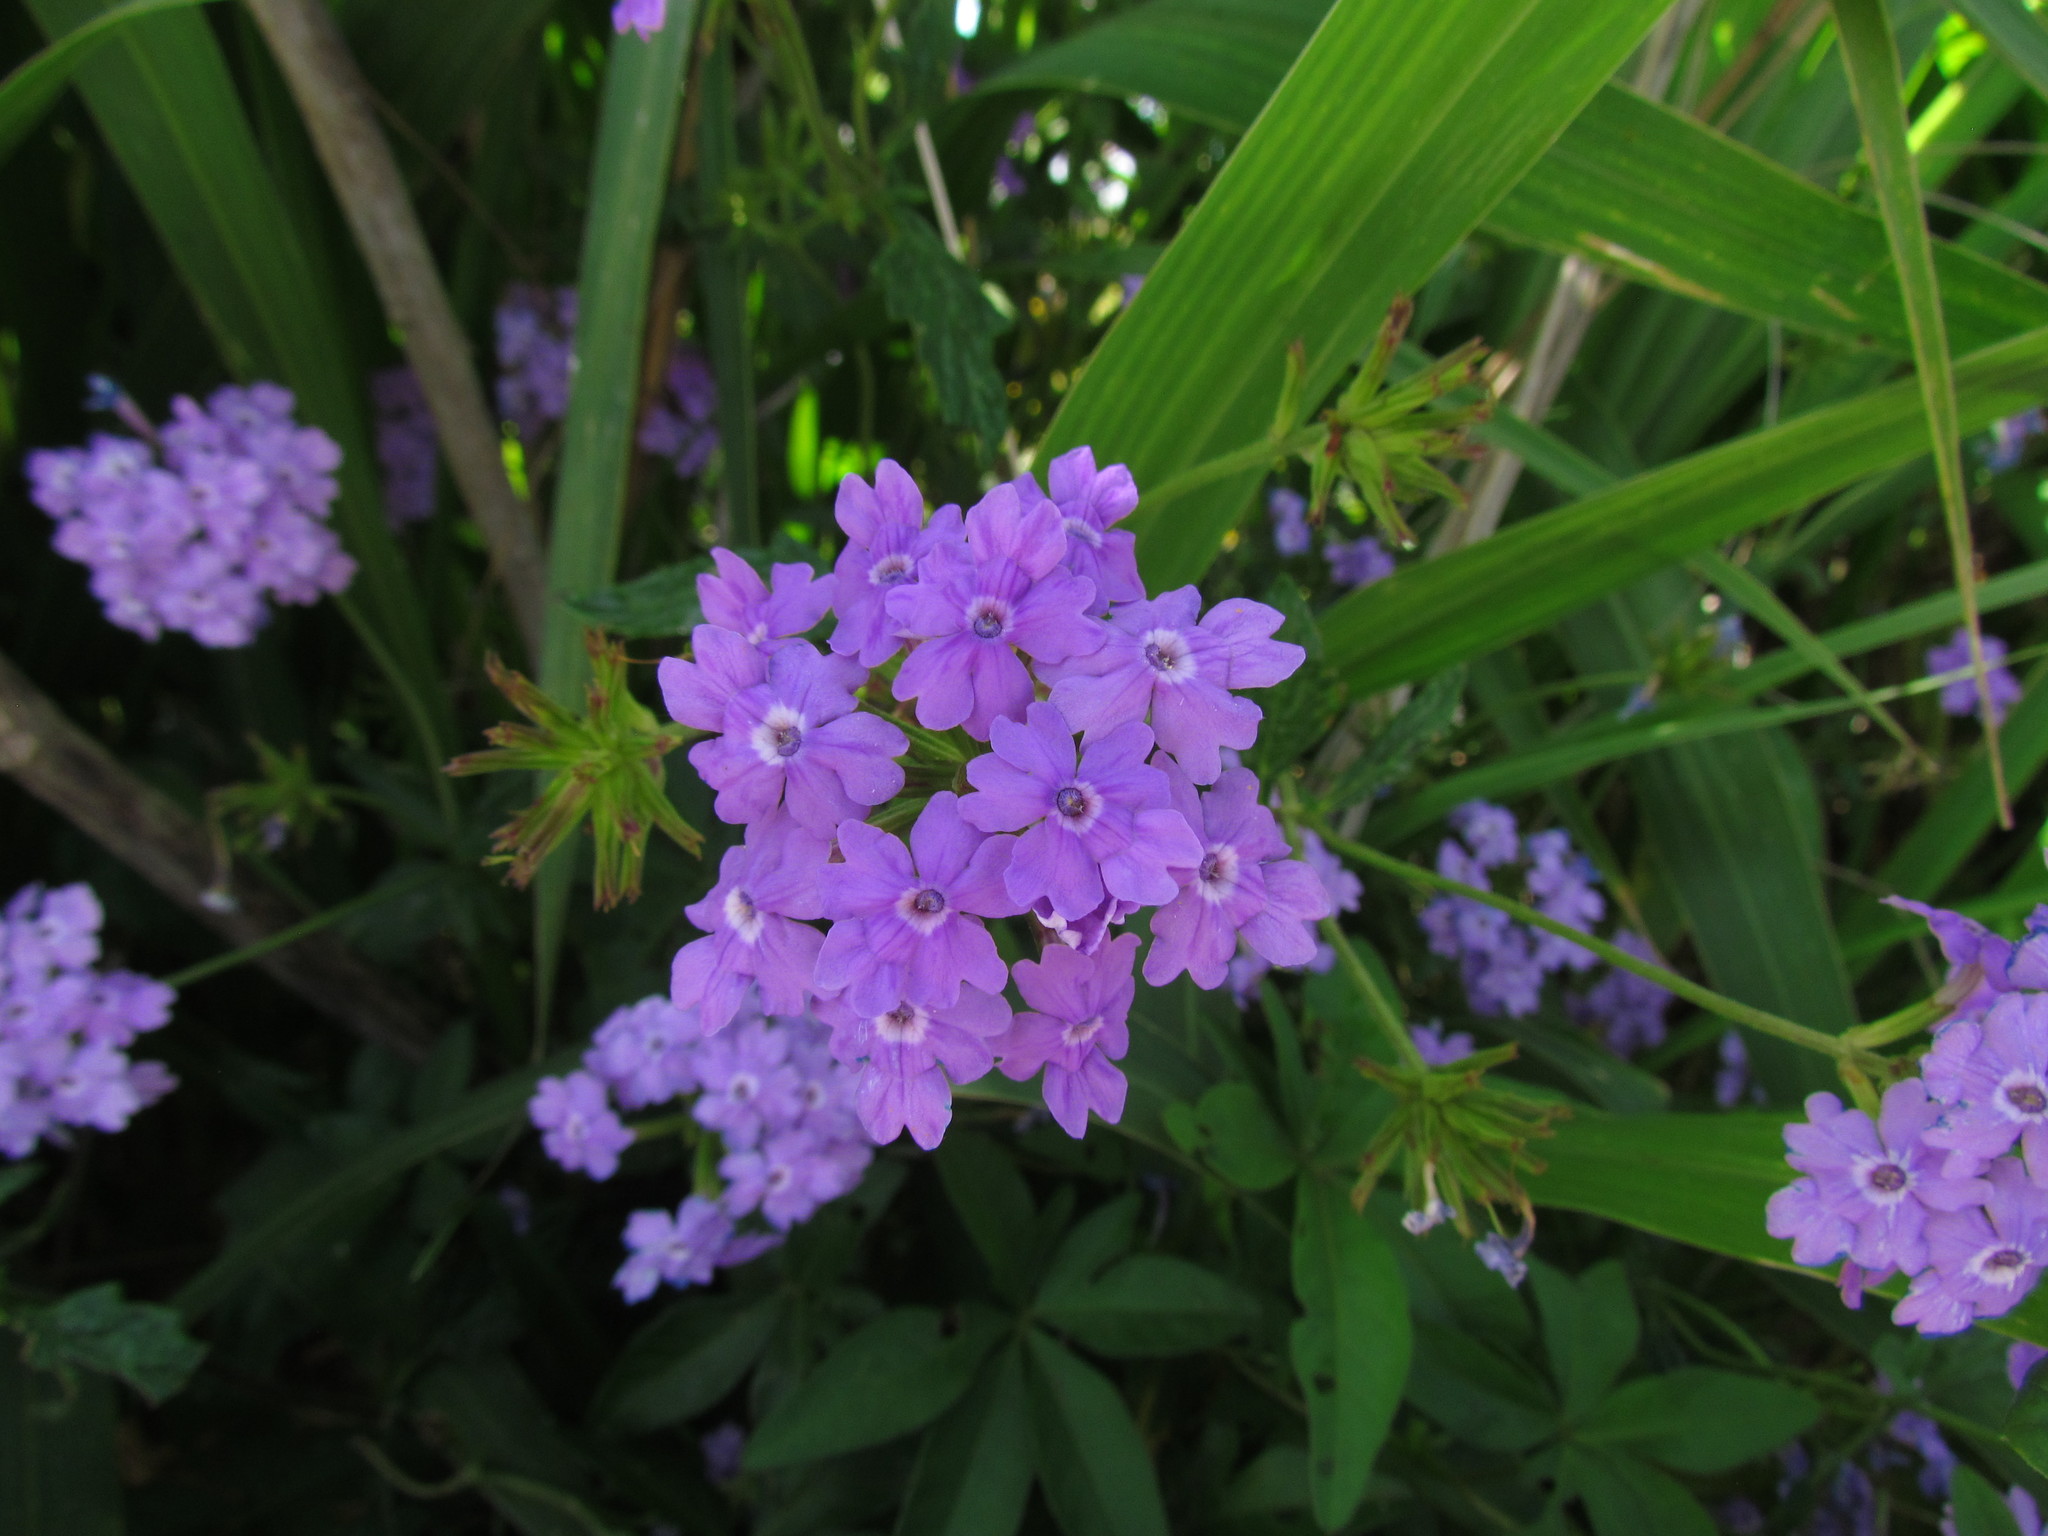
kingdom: Plantae
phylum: Tracheophyta
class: Magnoliopsida
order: Lamiales
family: Verbenaceae
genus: Verbena
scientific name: Verbena megapotamica
